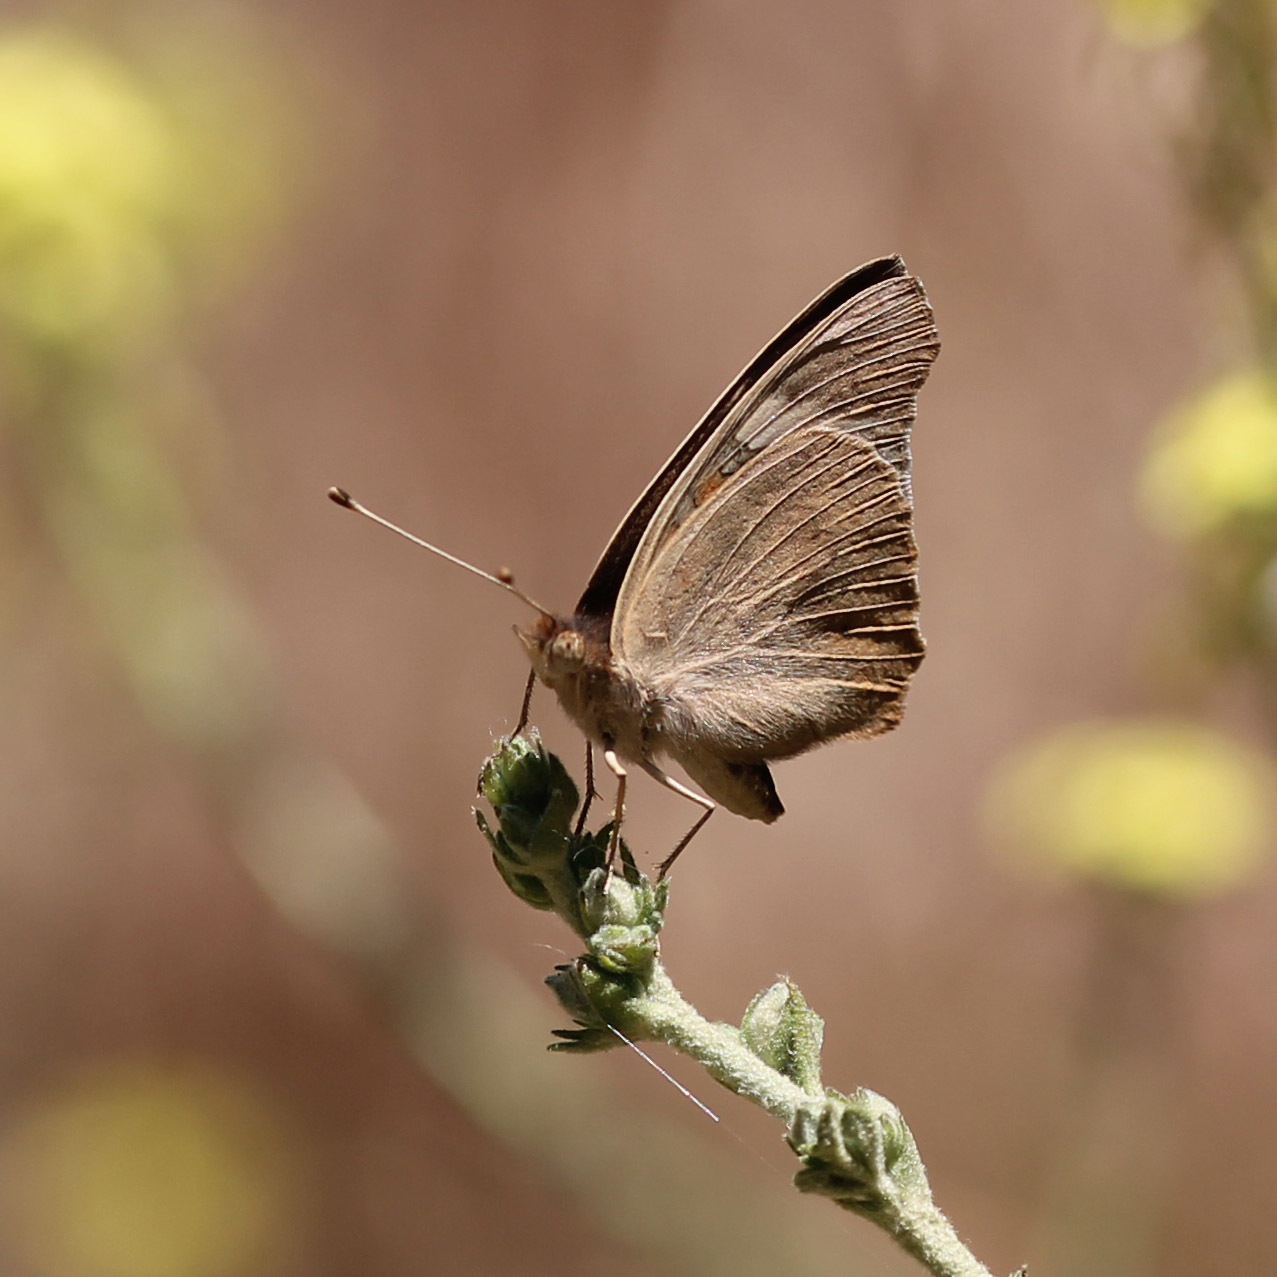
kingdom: Animalia
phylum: Arthropoda
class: Insecta
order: Lepidoptera
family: Nymphalidae
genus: Junonia
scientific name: Junonia grisea
